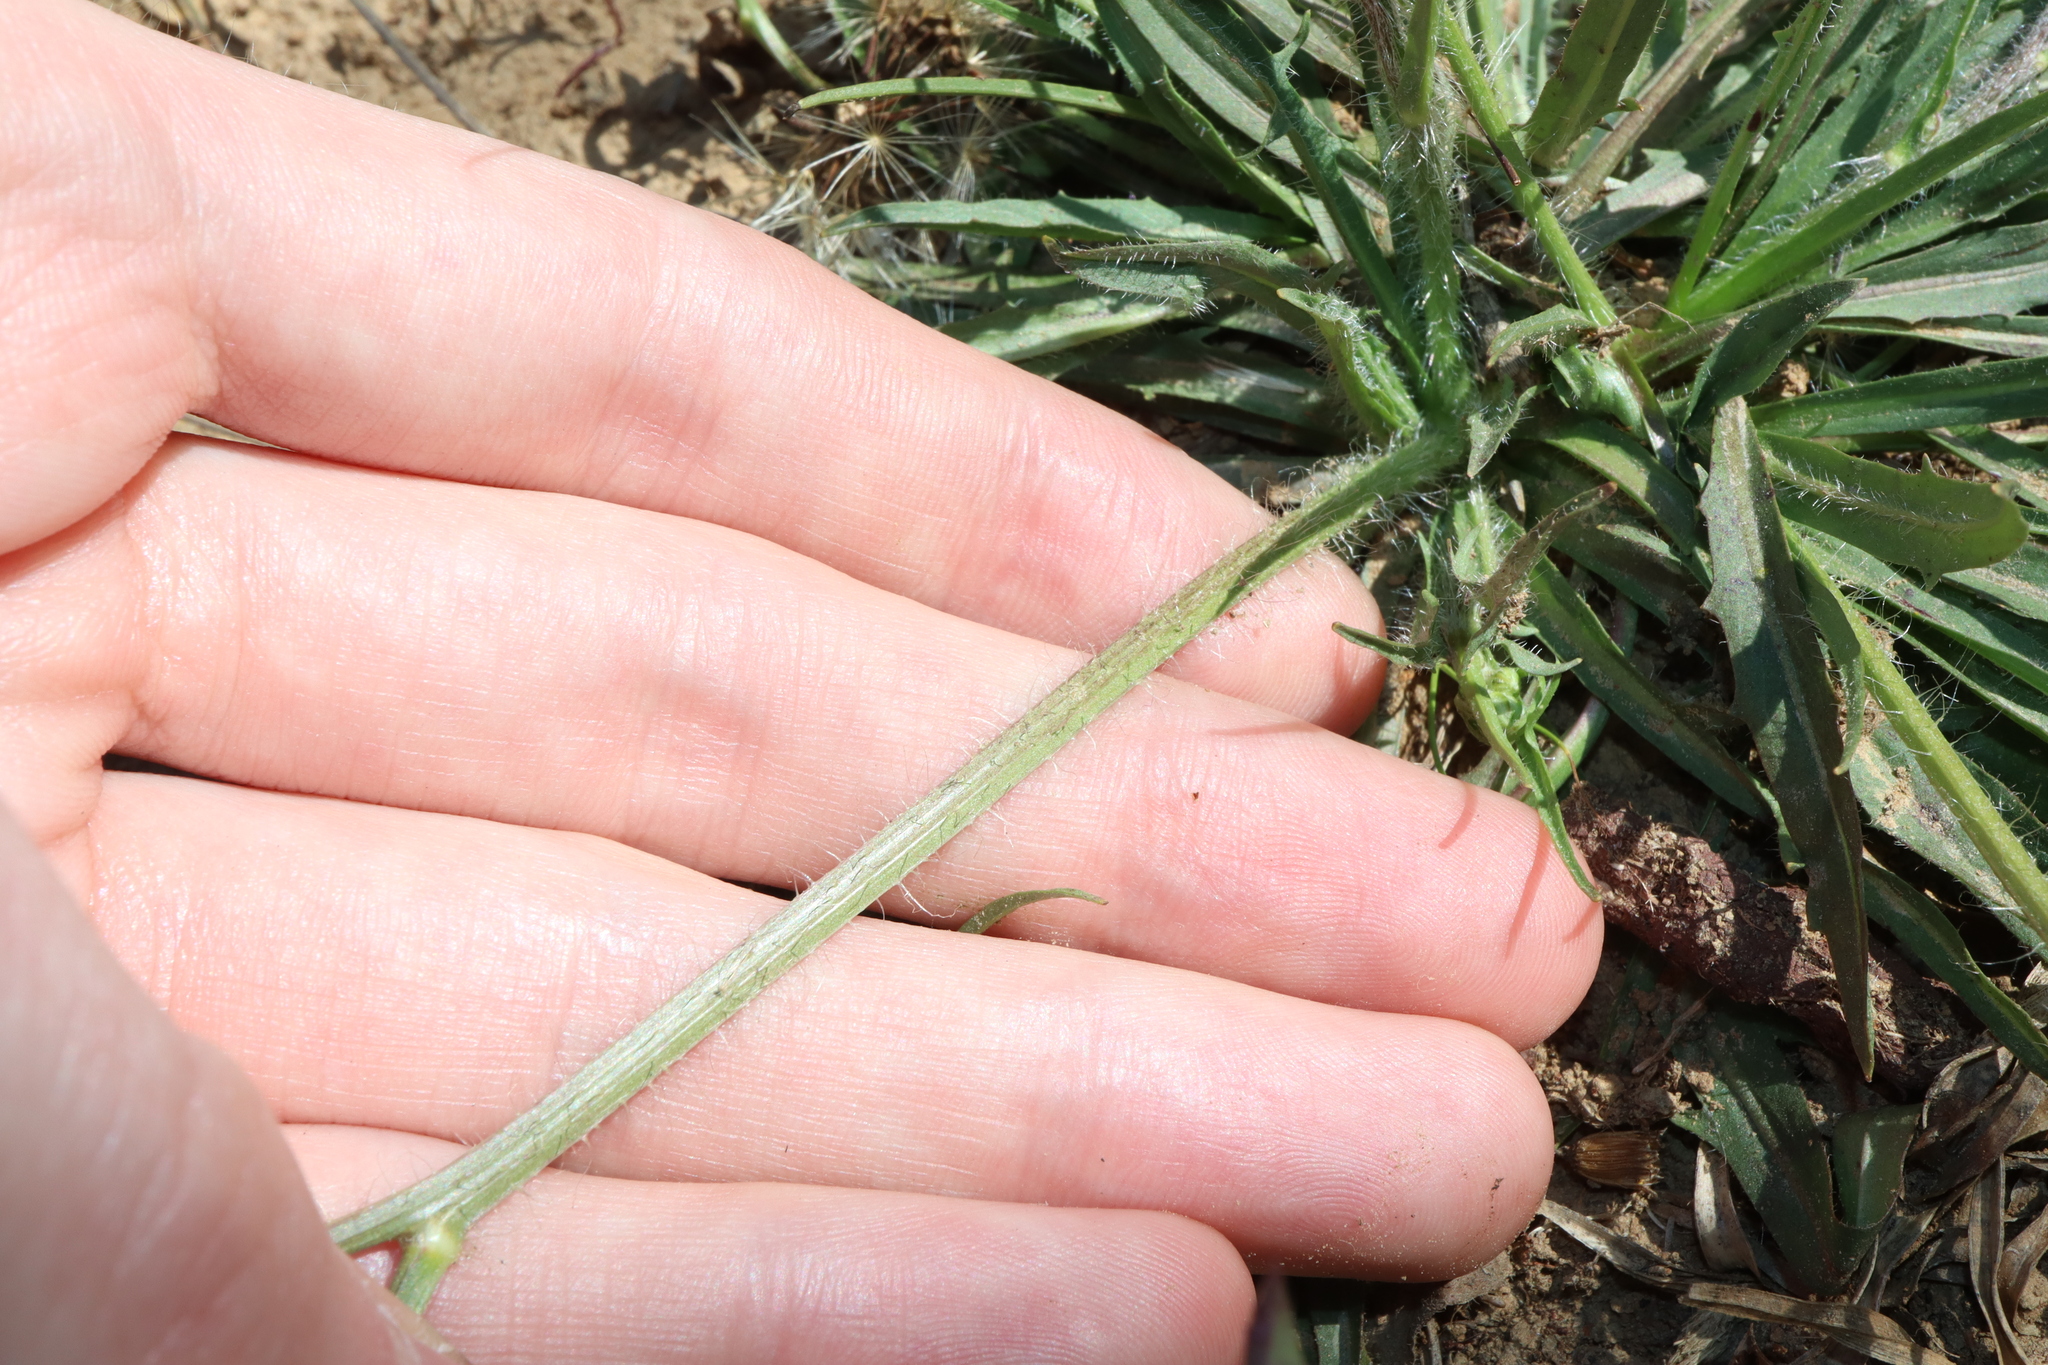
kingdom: Plantae
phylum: Tracheophyta
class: Magnoliopsida
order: Asterales
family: Asteraceae
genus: Hypochaeris
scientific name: Hypochaeris albiflora
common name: White flatweed
